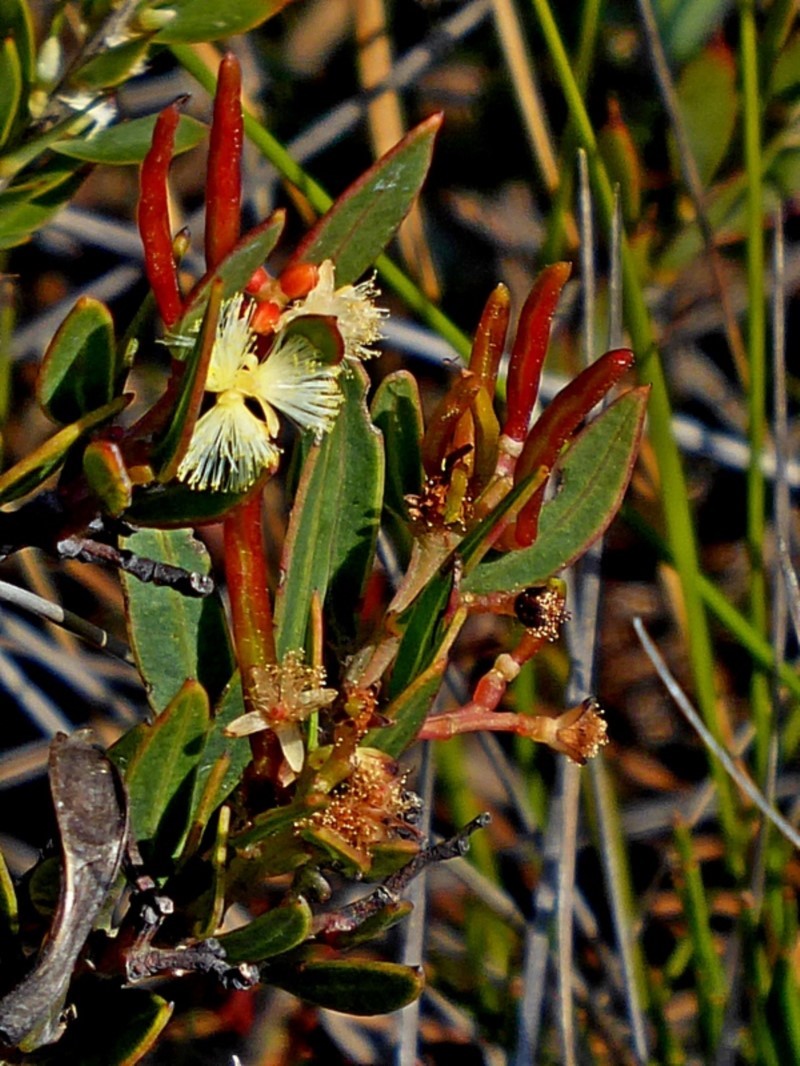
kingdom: Plantae
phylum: Tracheophyta
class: Magnoliopsida
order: Fabales
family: Fabaceae
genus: Acacia
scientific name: Acacia myrtifolia
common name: Myrtle wattle
